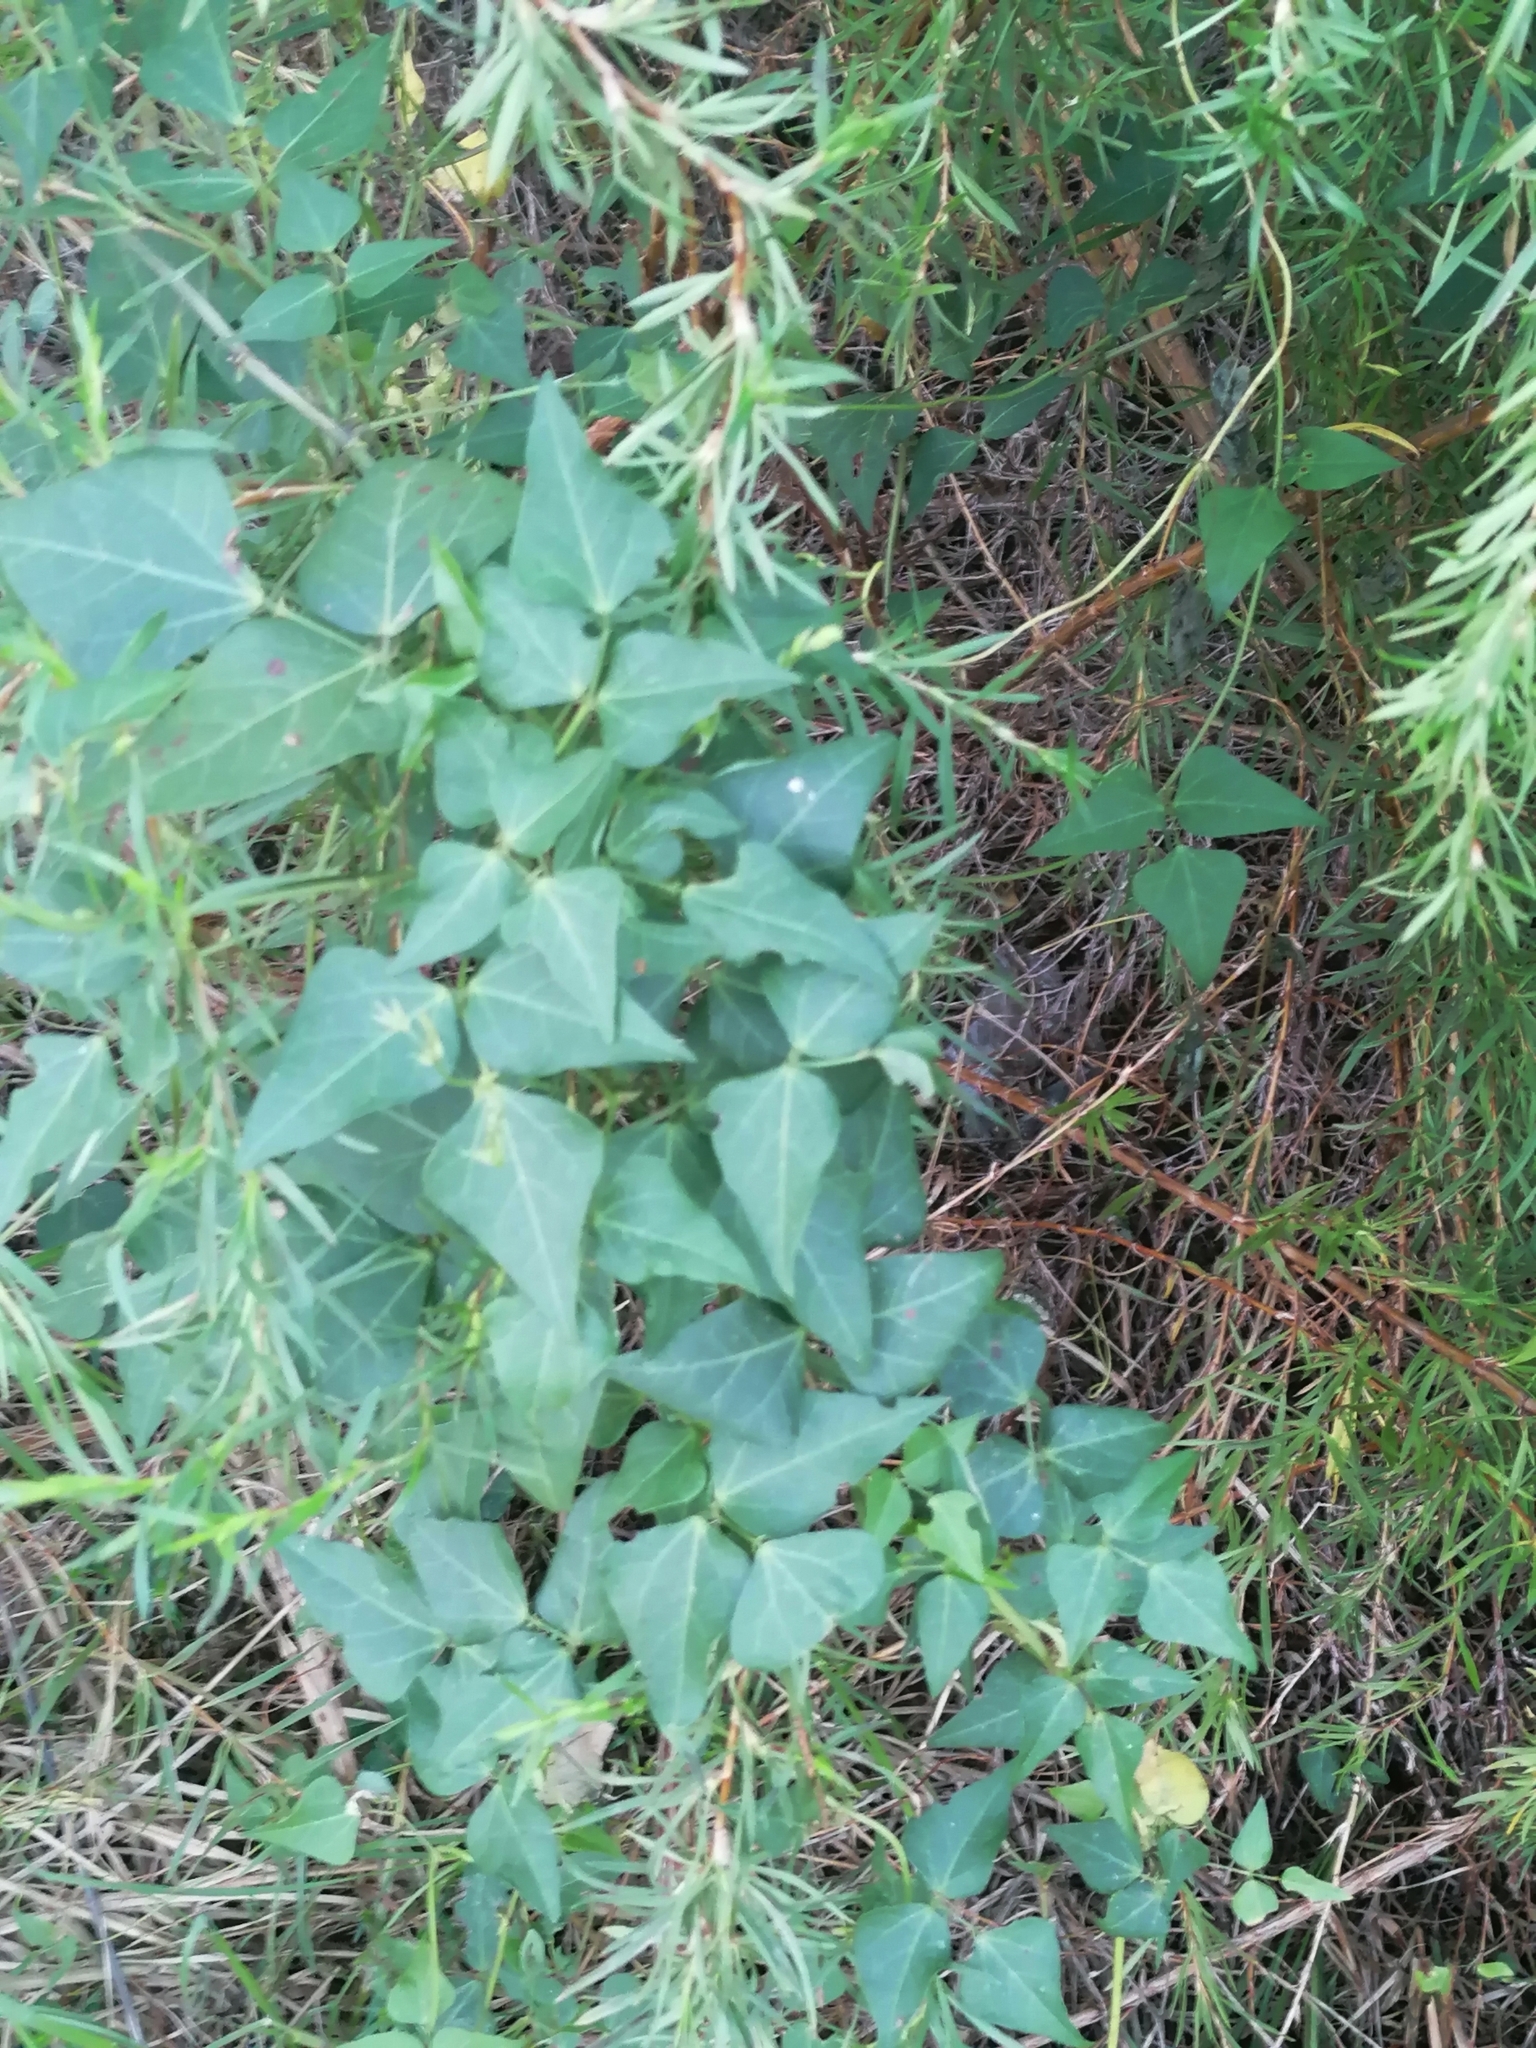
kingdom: Plantae
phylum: Tracheophyta
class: Magnoliopsida
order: Fabales
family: Fabaceae
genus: Dipogon
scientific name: Dipogon lignosus
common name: Okie bean
